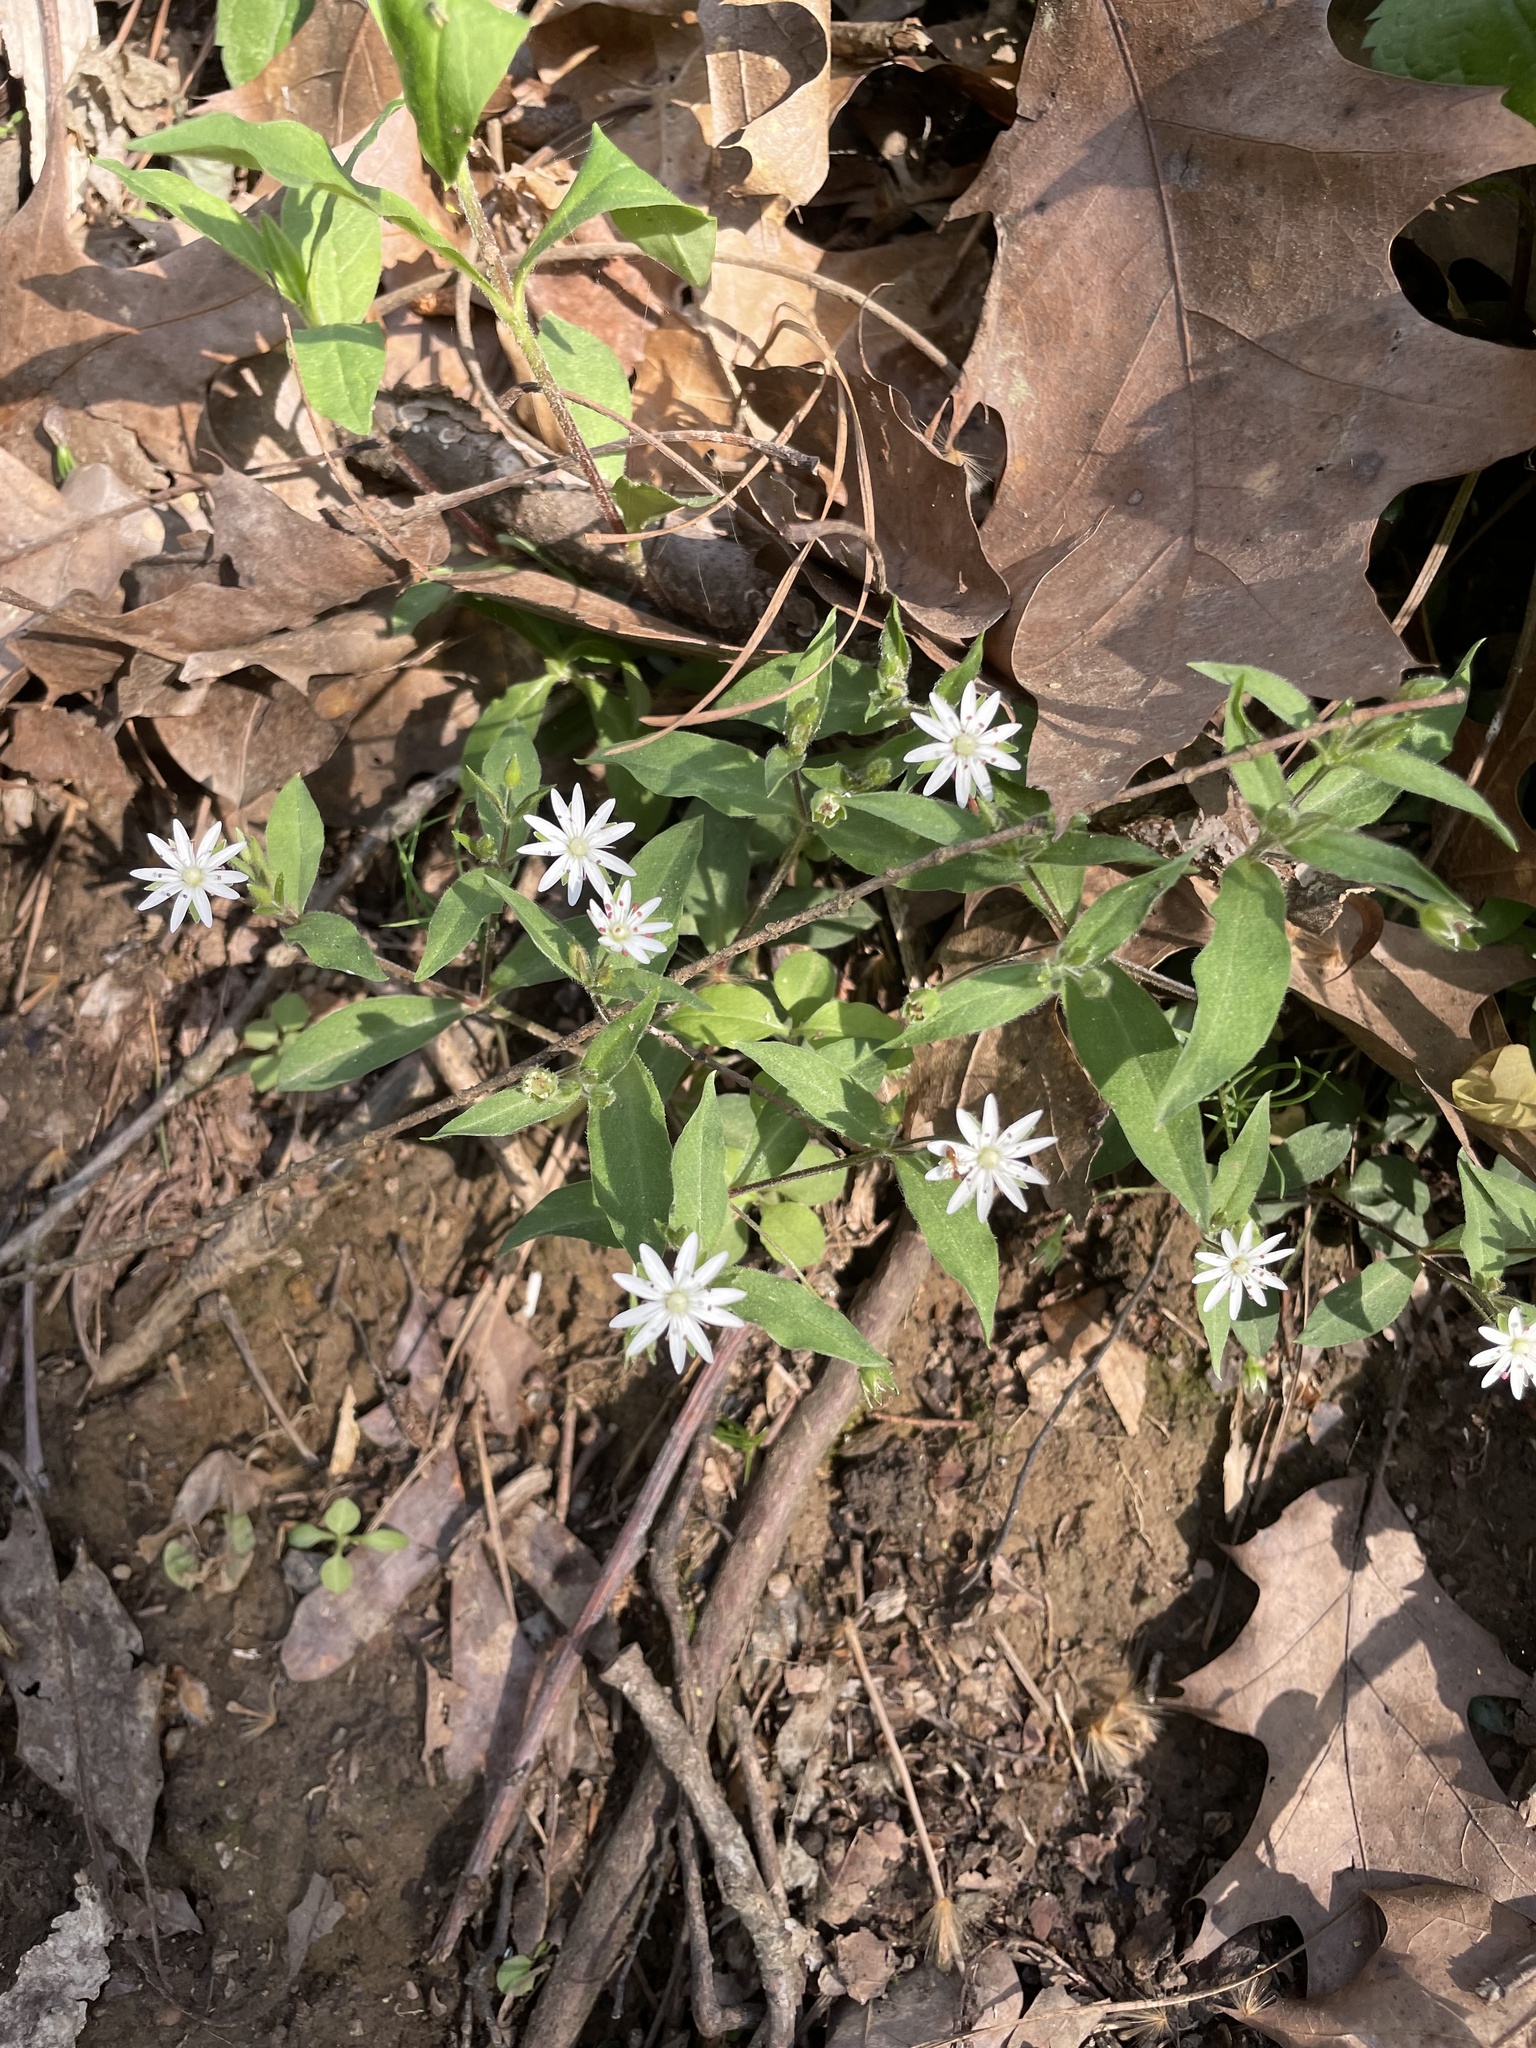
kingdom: Plantae
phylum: Tracheophyta
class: Magnoliopsida
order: Caryophyllales
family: Caryophyllaceae
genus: Stellaria
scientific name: Stellaria pubera
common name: Star chickweed
